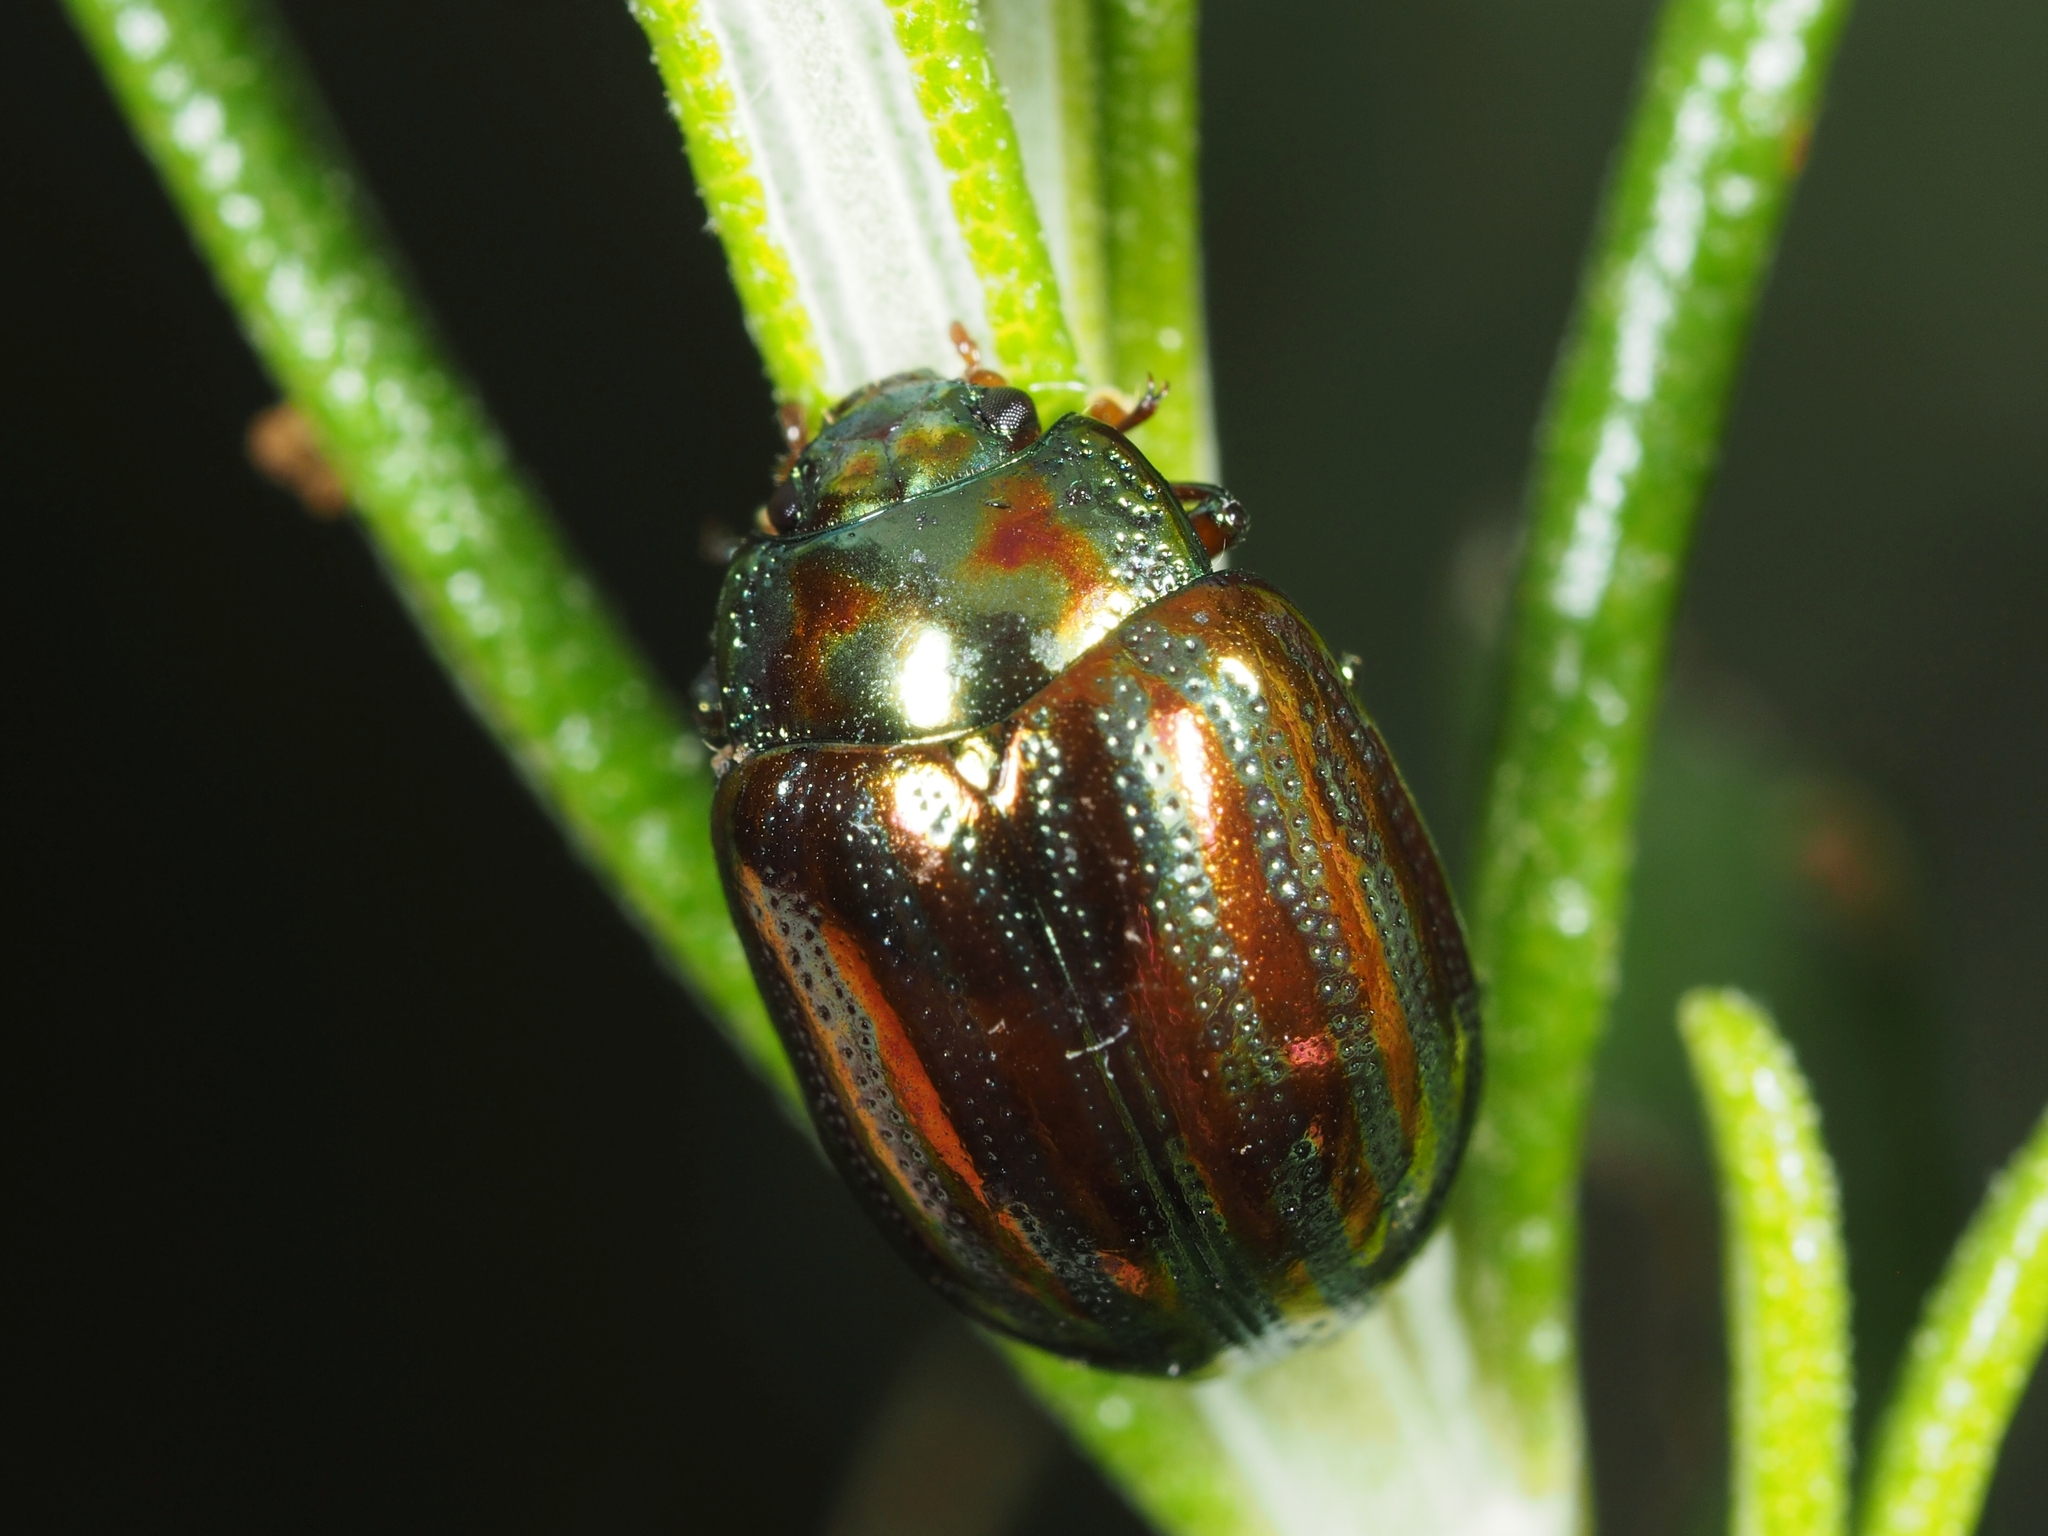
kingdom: Animalia
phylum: Arthropoda
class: Insecta
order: Coleoptera
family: Chrysomelidae
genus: Chrysolina
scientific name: Chrysolina americana
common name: Rosemary beetle
